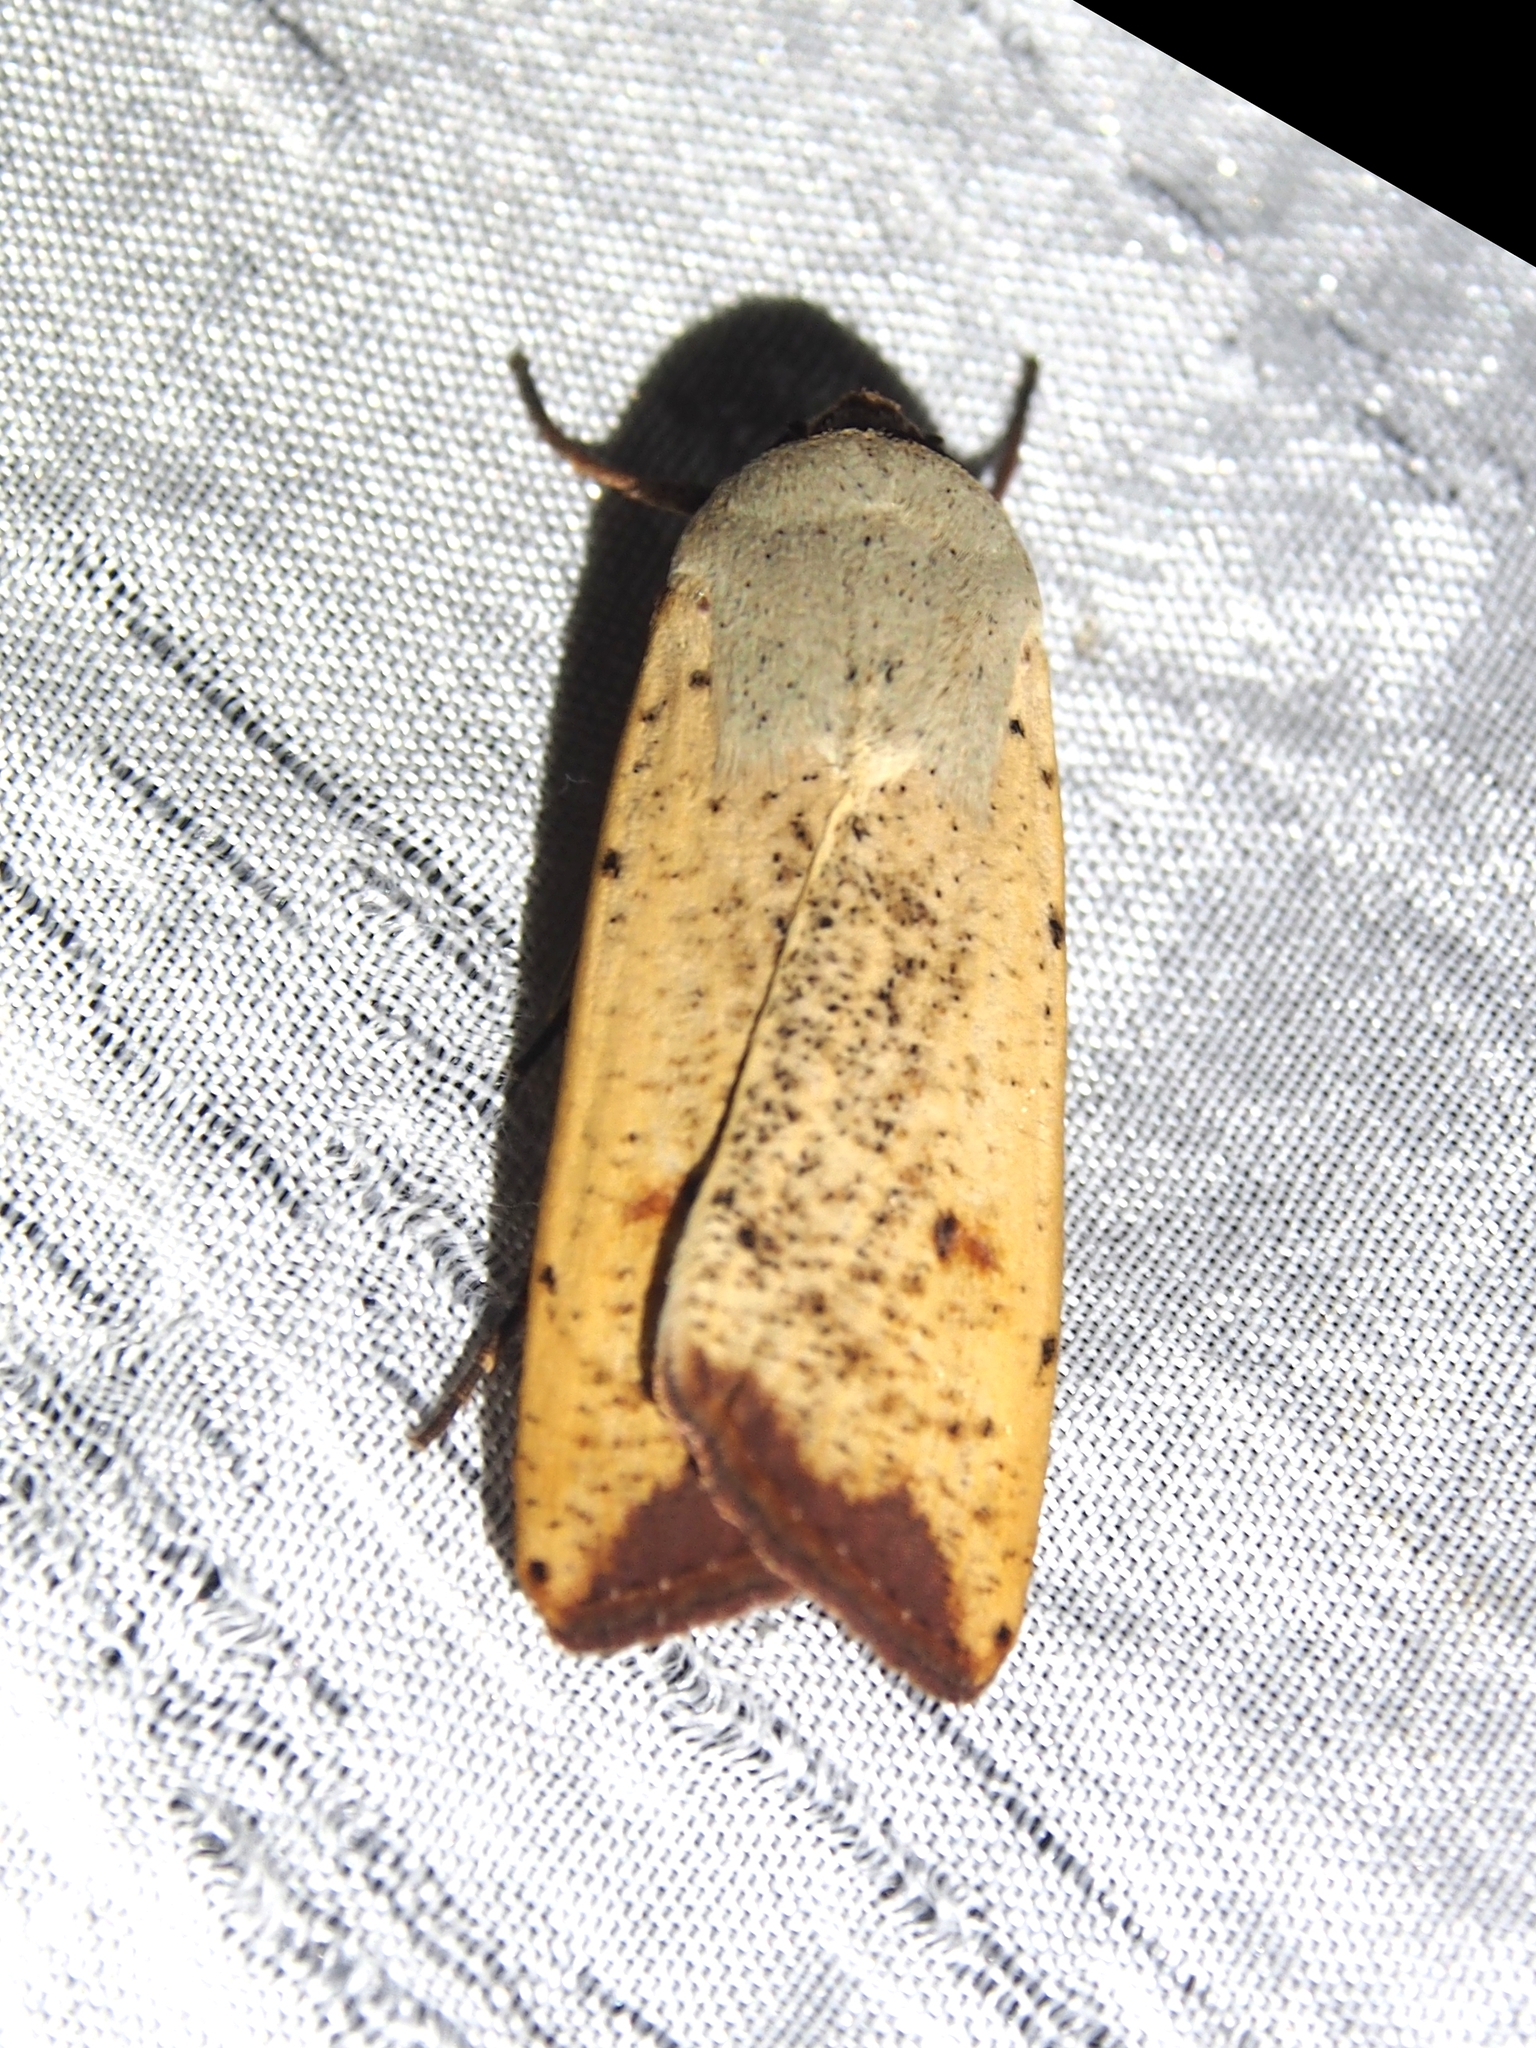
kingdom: Animalia
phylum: Arthropoda
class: Insecta
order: Lepidoptera
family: Noctuidae
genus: Anicla
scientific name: Anicla ignicans
